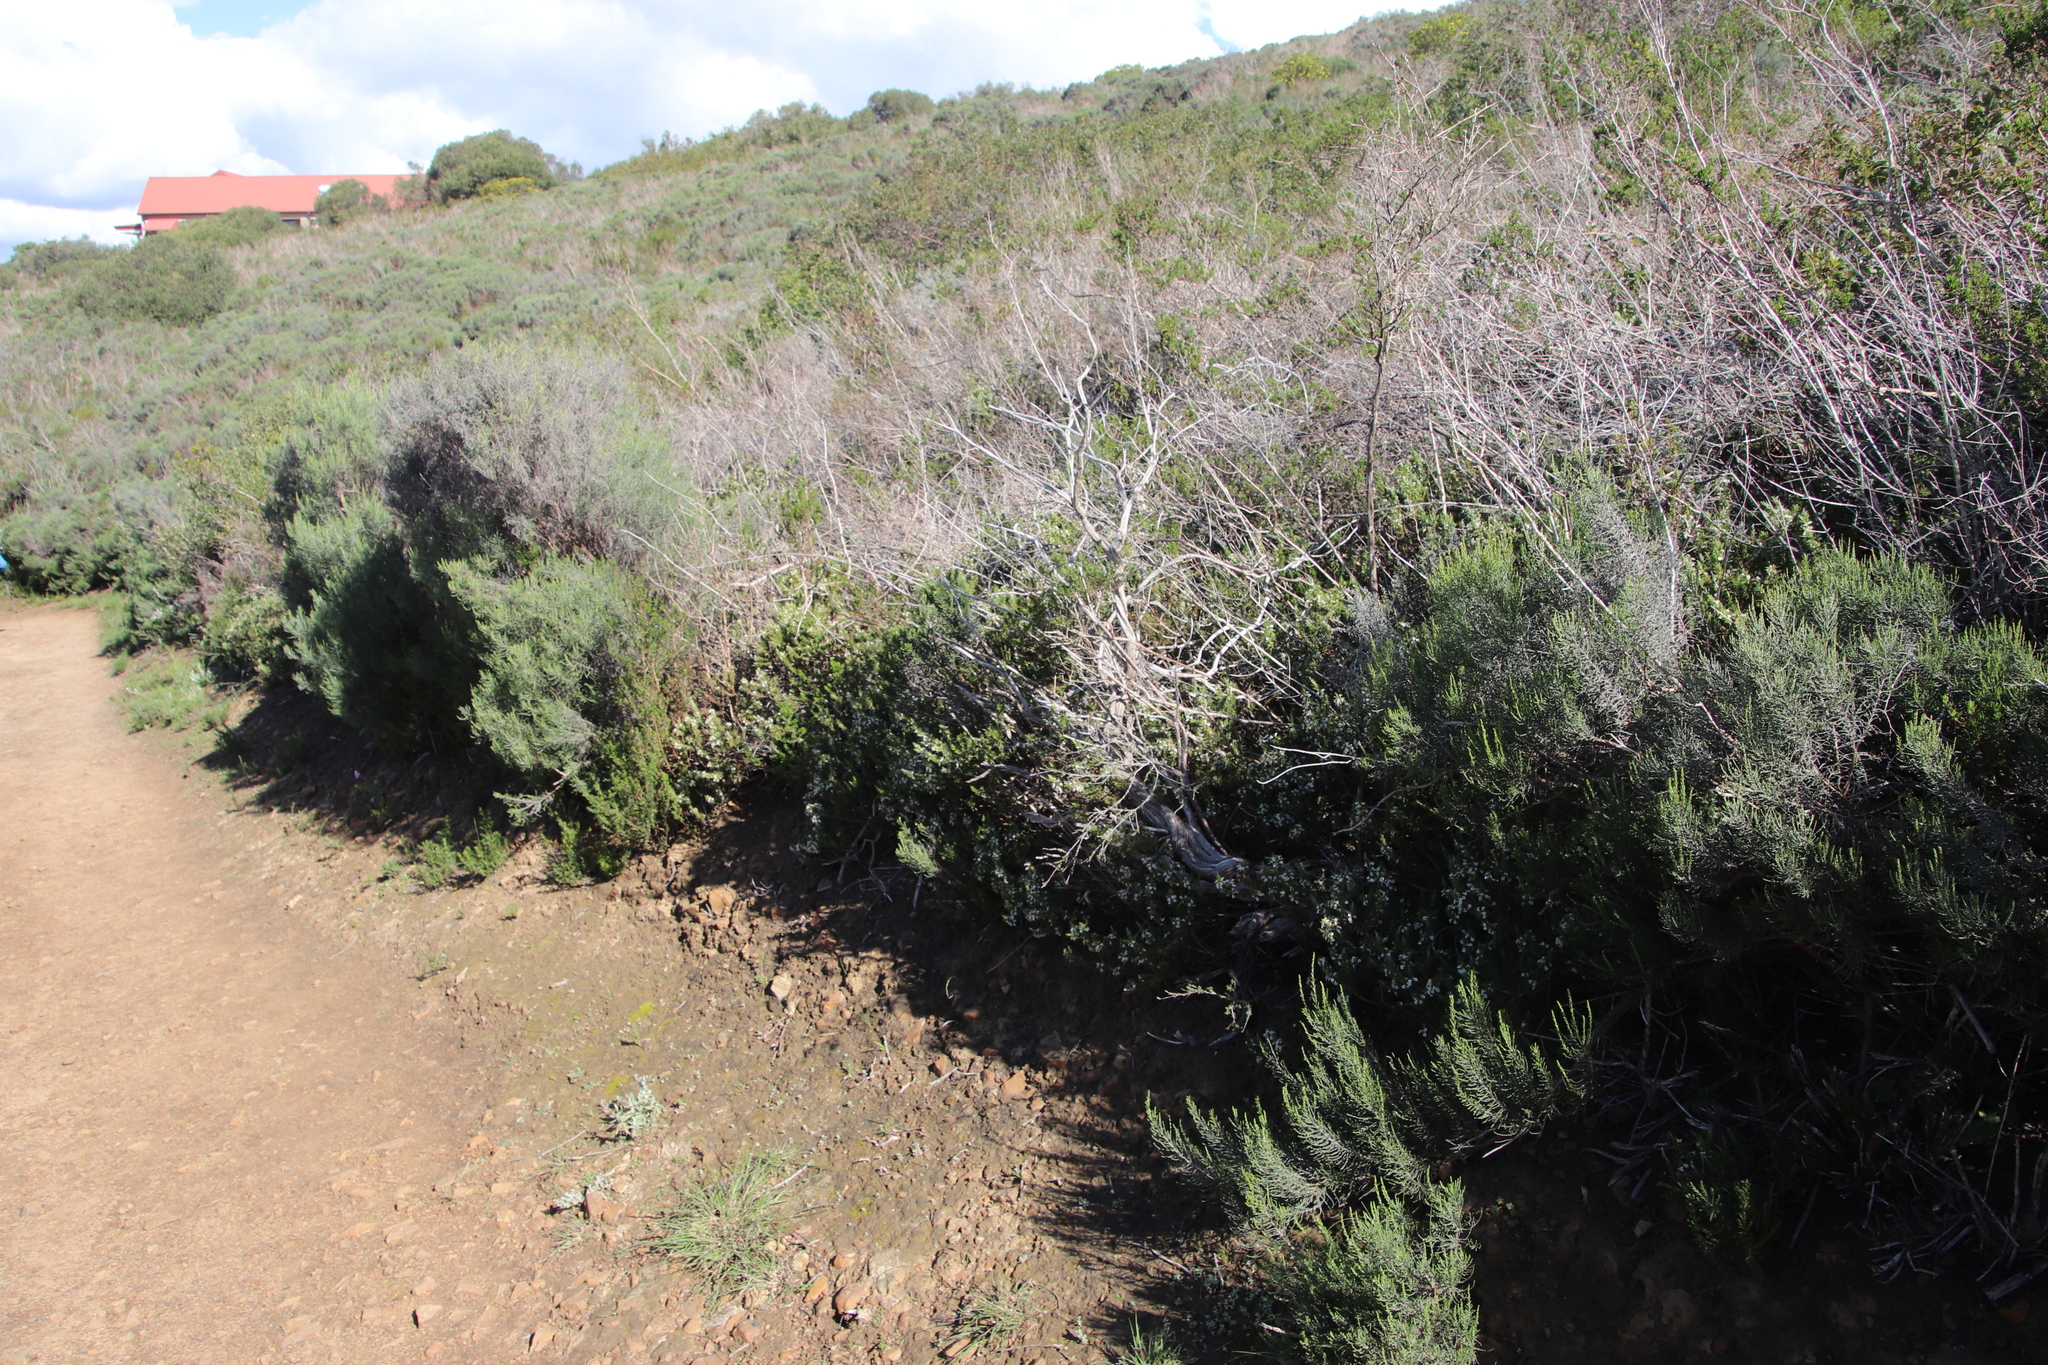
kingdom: Plantae
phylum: Tracheophyta
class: Magnoliopsida
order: Fabales
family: Polygalaceae
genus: Muraltia
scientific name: Muraltia ononidifolia
